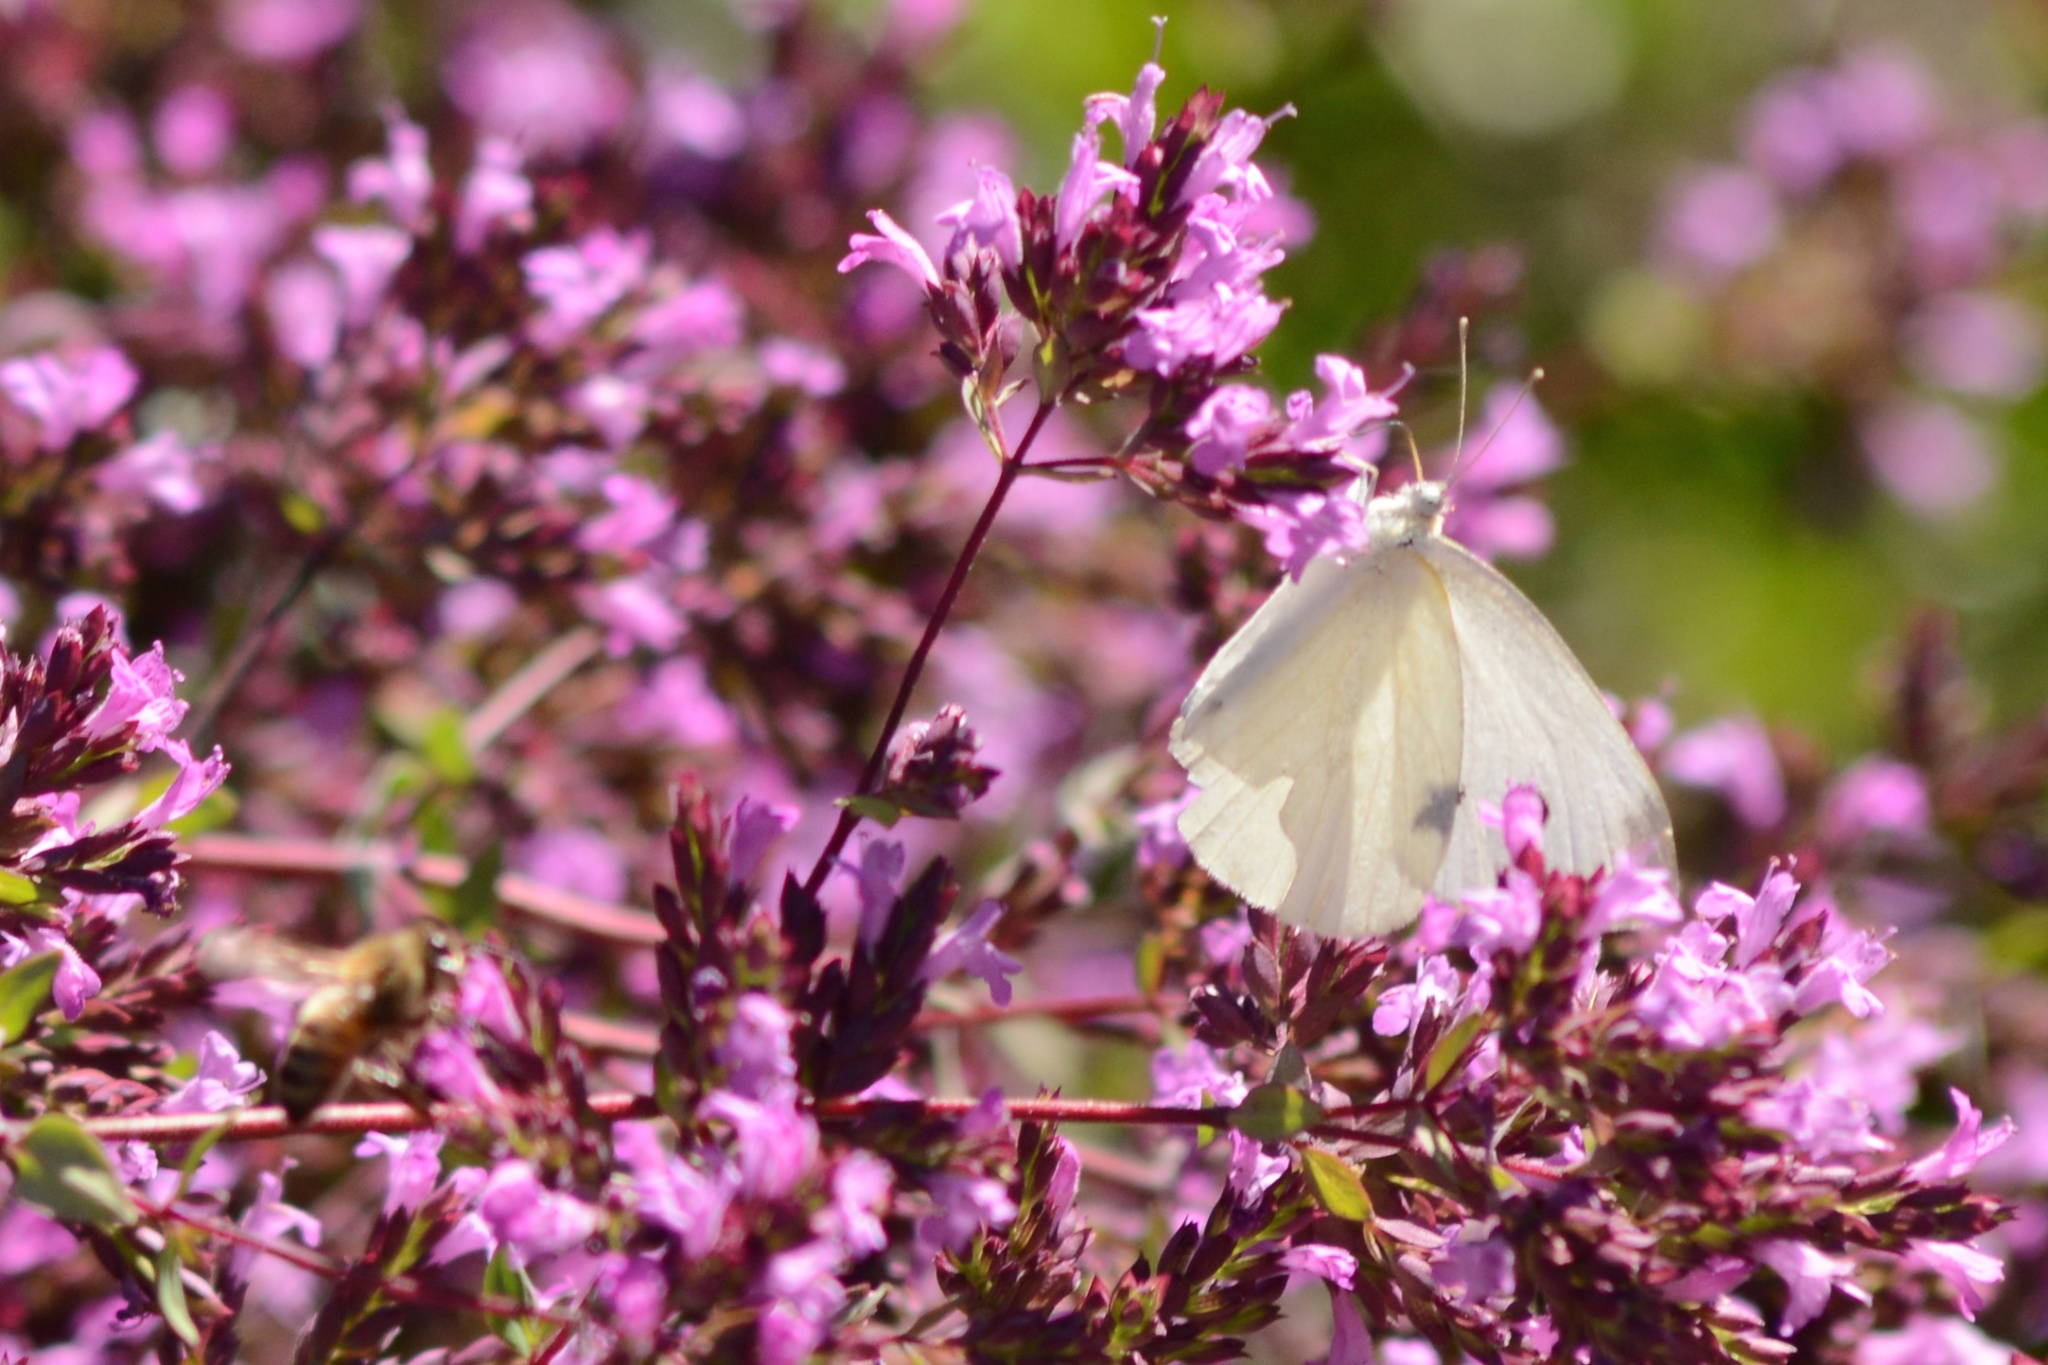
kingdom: Animalia
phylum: Arthropoda
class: Insecta
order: Lepidoptera
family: Pieridae
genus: Pieris
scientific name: Pieris rapae
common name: Small white
